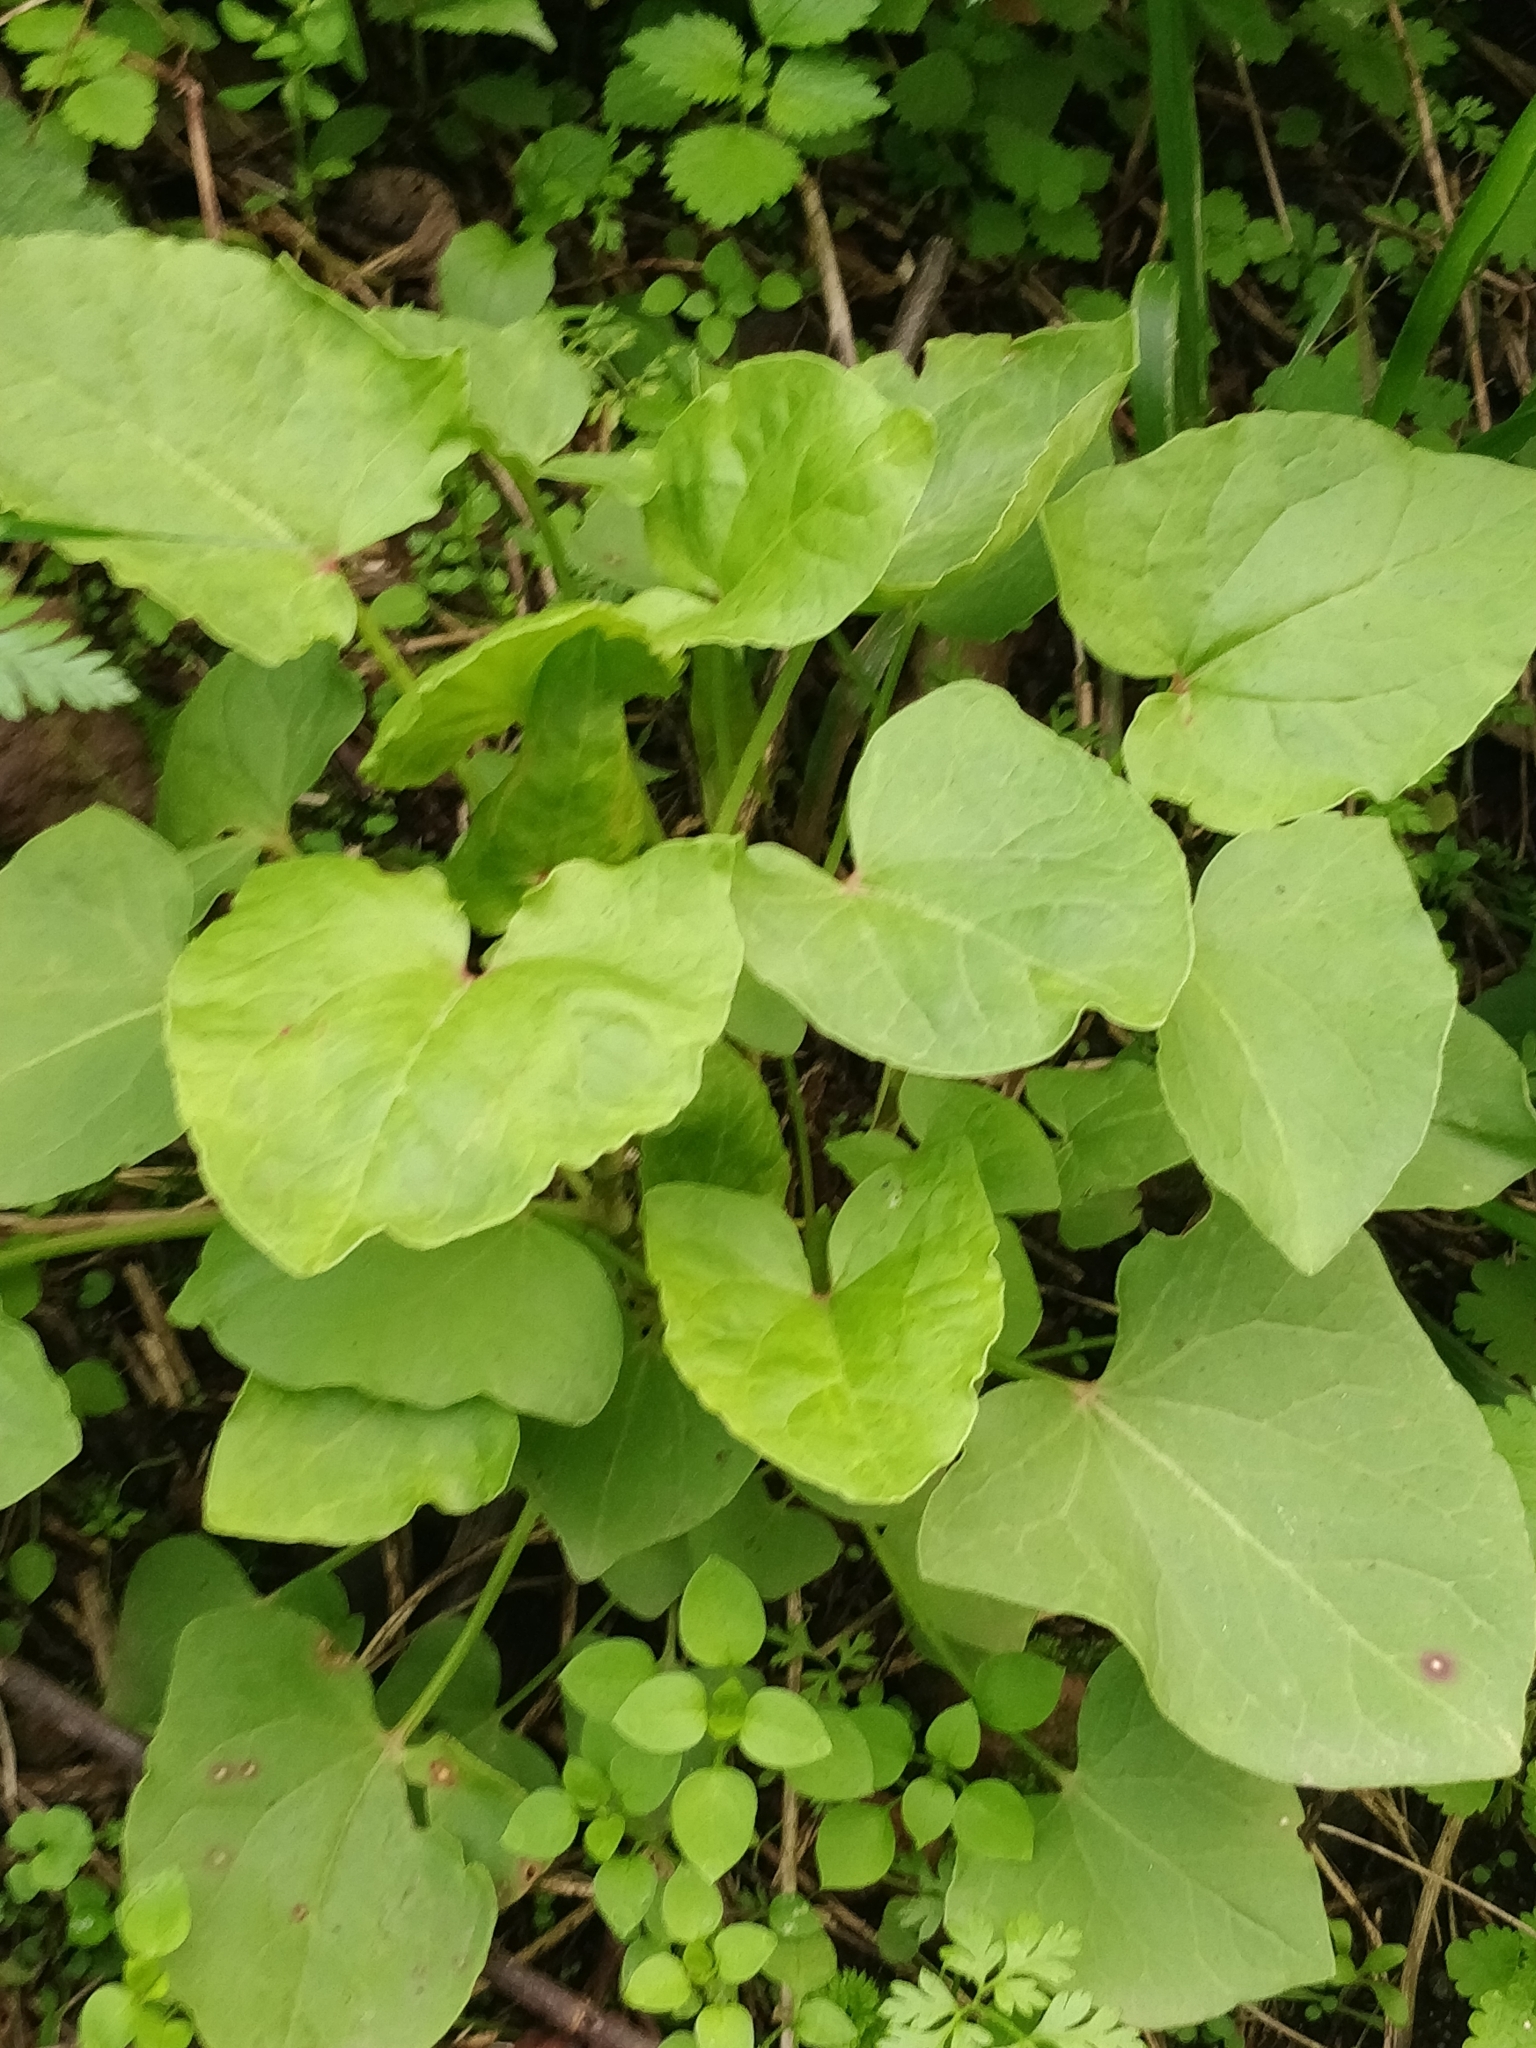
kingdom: Plantae
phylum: Tracheophyta
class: Magnoliopsida
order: Caryophyllales
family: Polygonaceae
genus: Rumex
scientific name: Rumex maderensis
